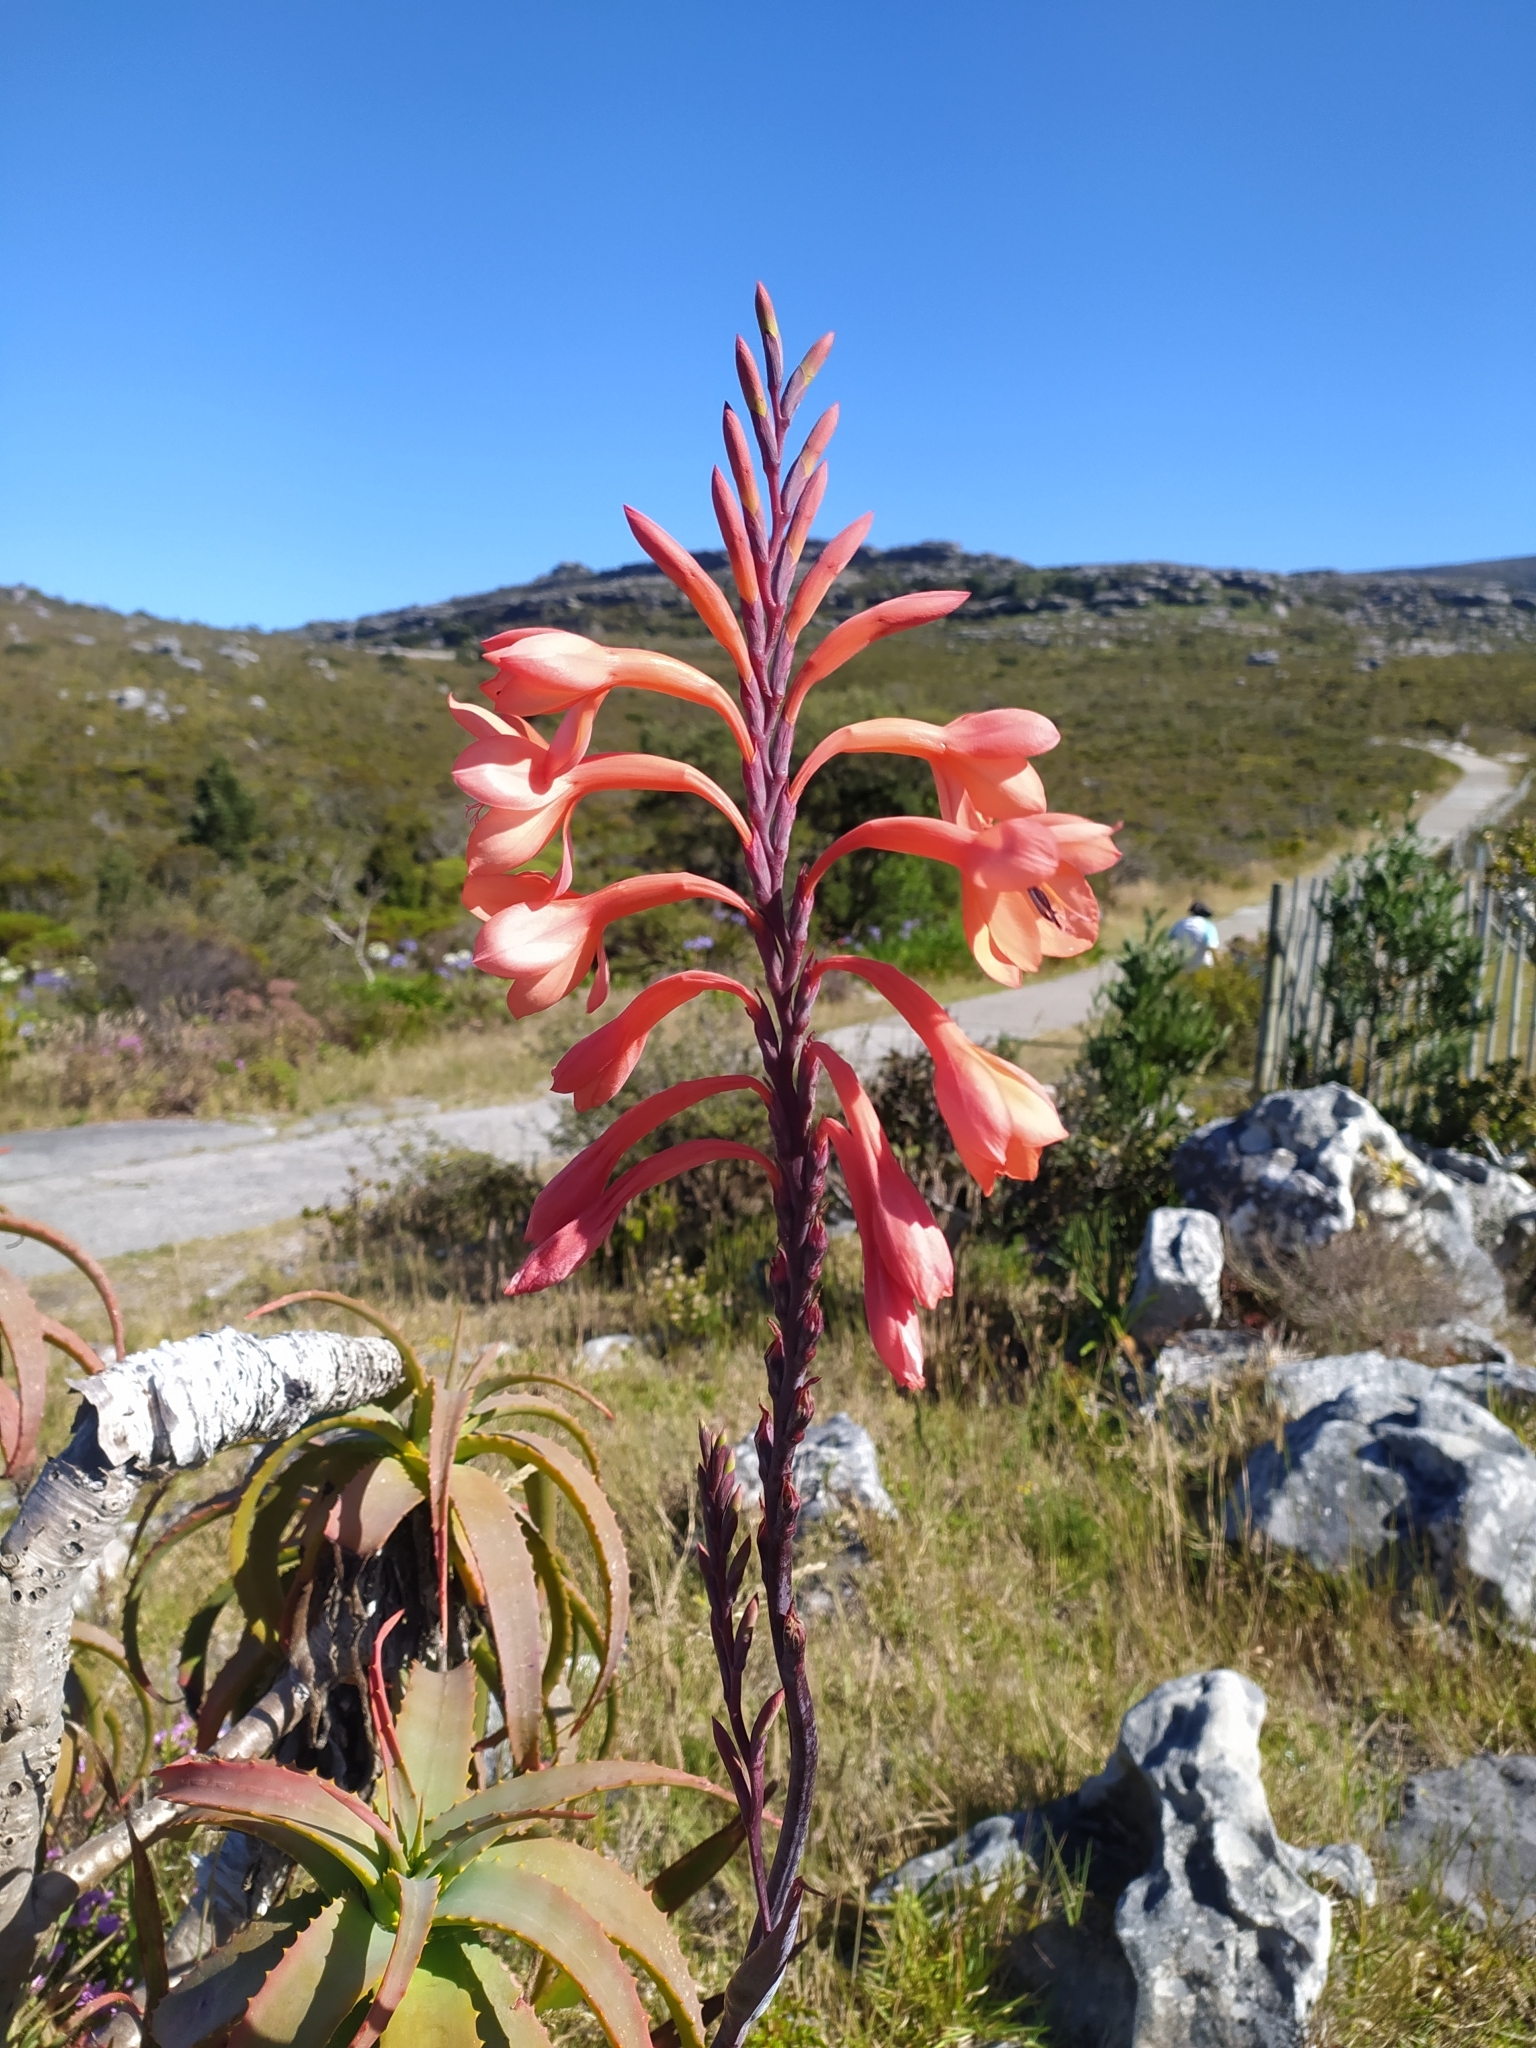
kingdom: Plantae
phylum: Tracheophyta
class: Liliopsida
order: Asparagales
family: Iridaceae
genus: Watsonia
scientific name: Watsonia tabularis
